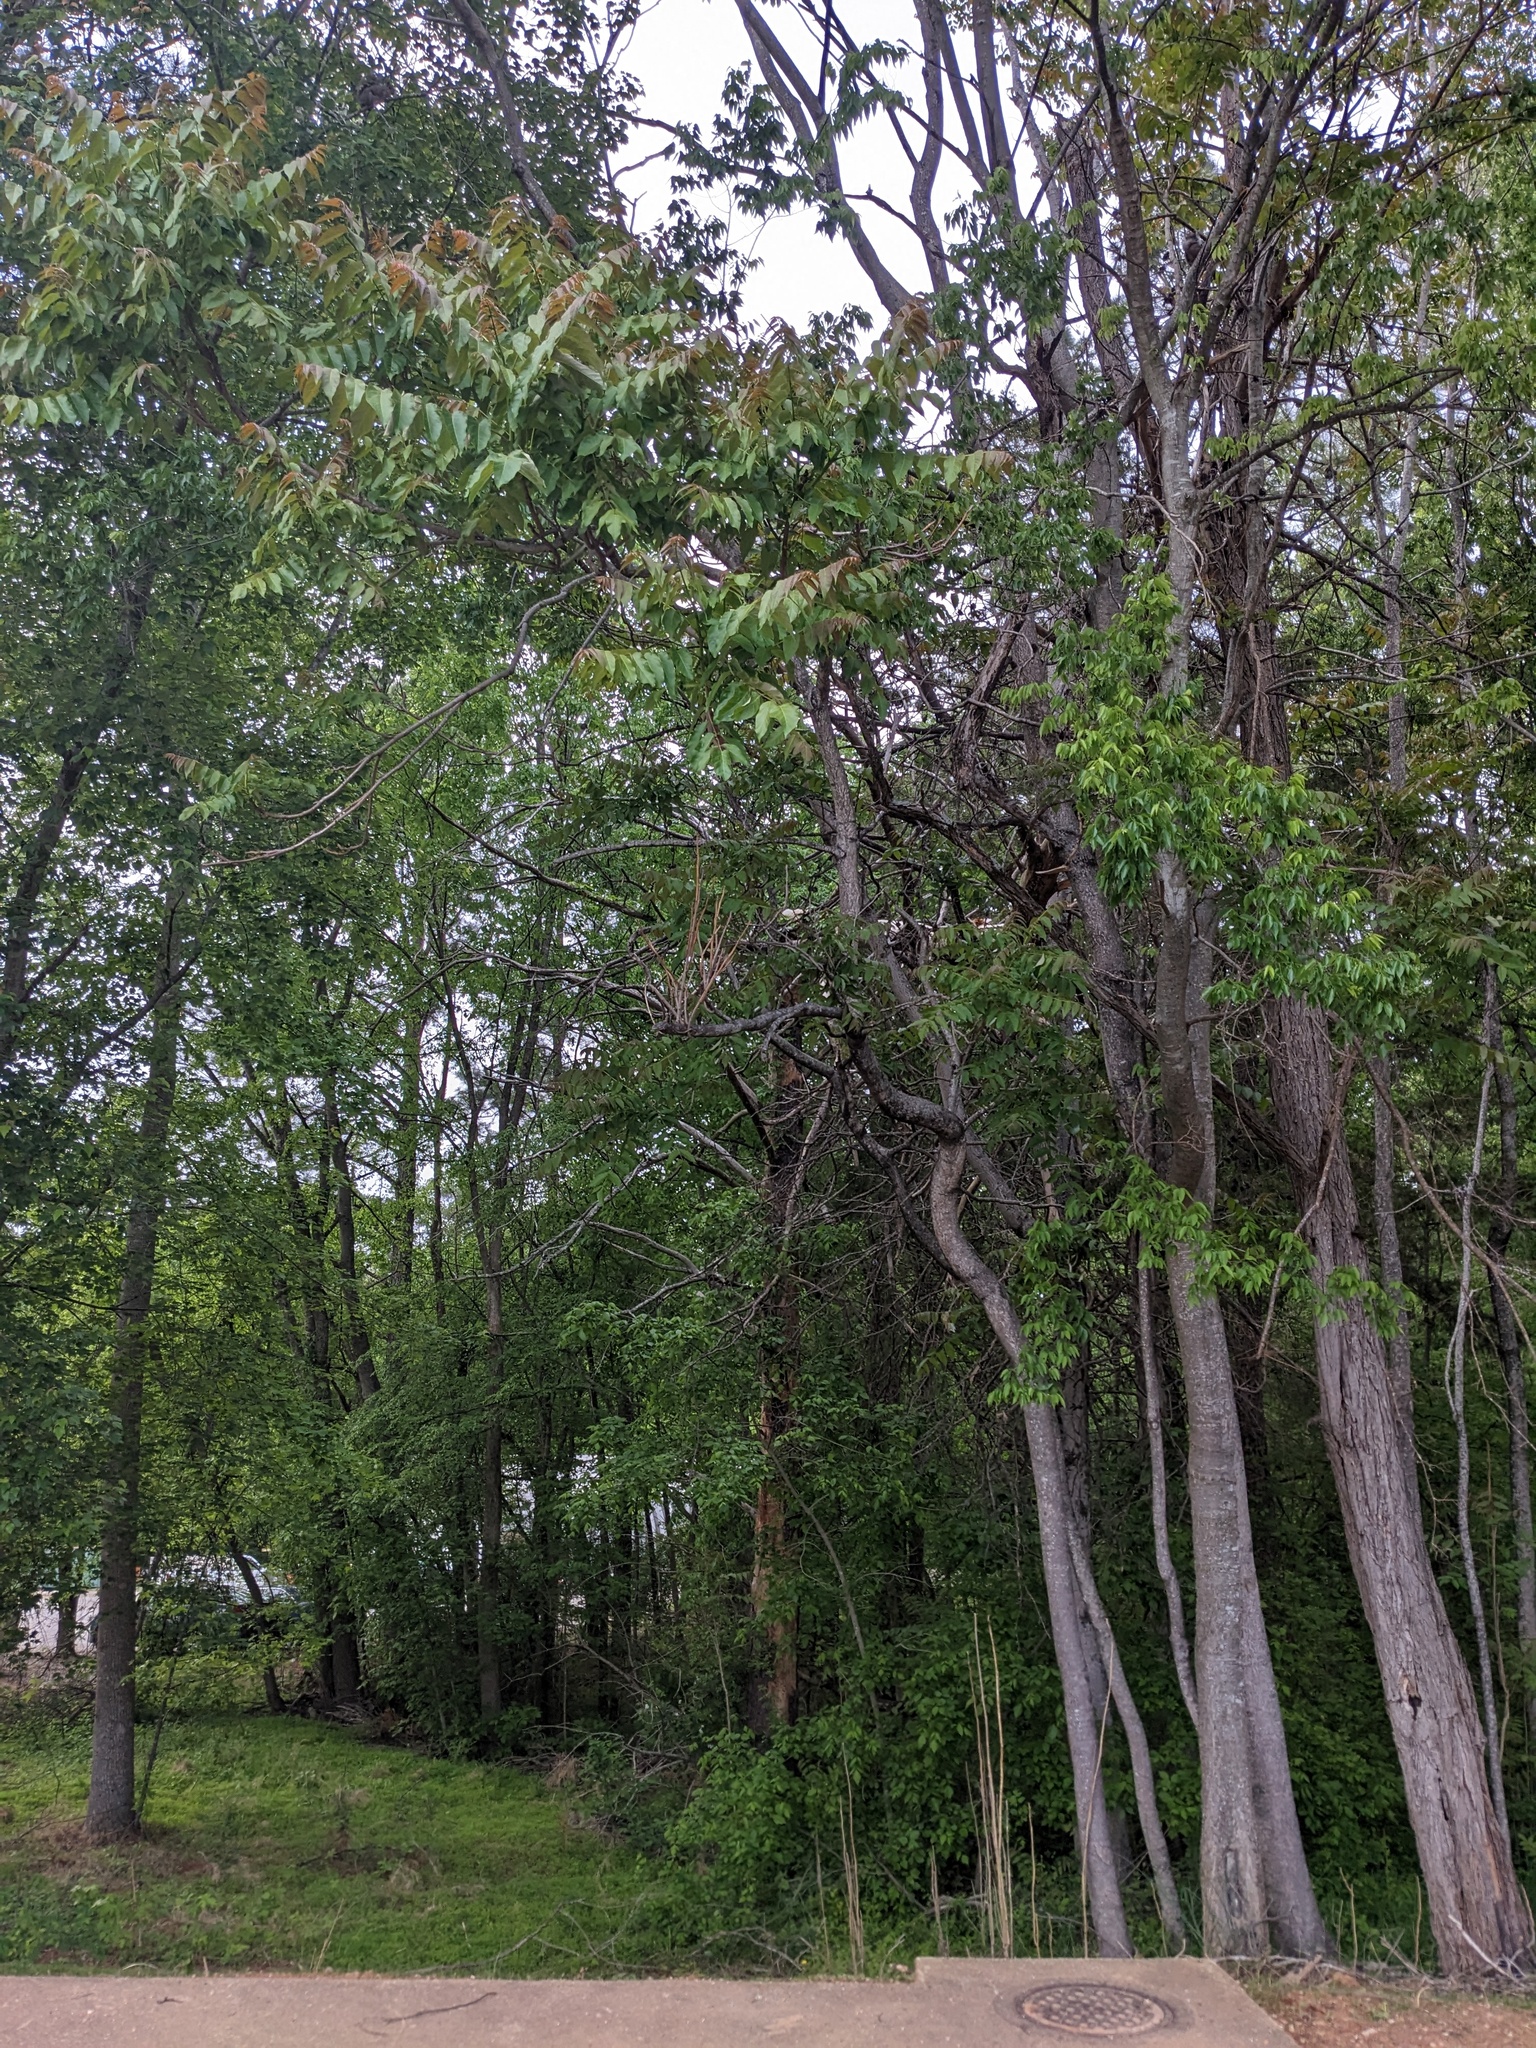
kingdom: Plantae
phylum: Tracheophyta
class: Magnoliopsida
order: Sapindales
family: Simaroubaceae
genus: Ailanthus
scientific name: Ailanthus altissima
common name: Tree-of-heaven
